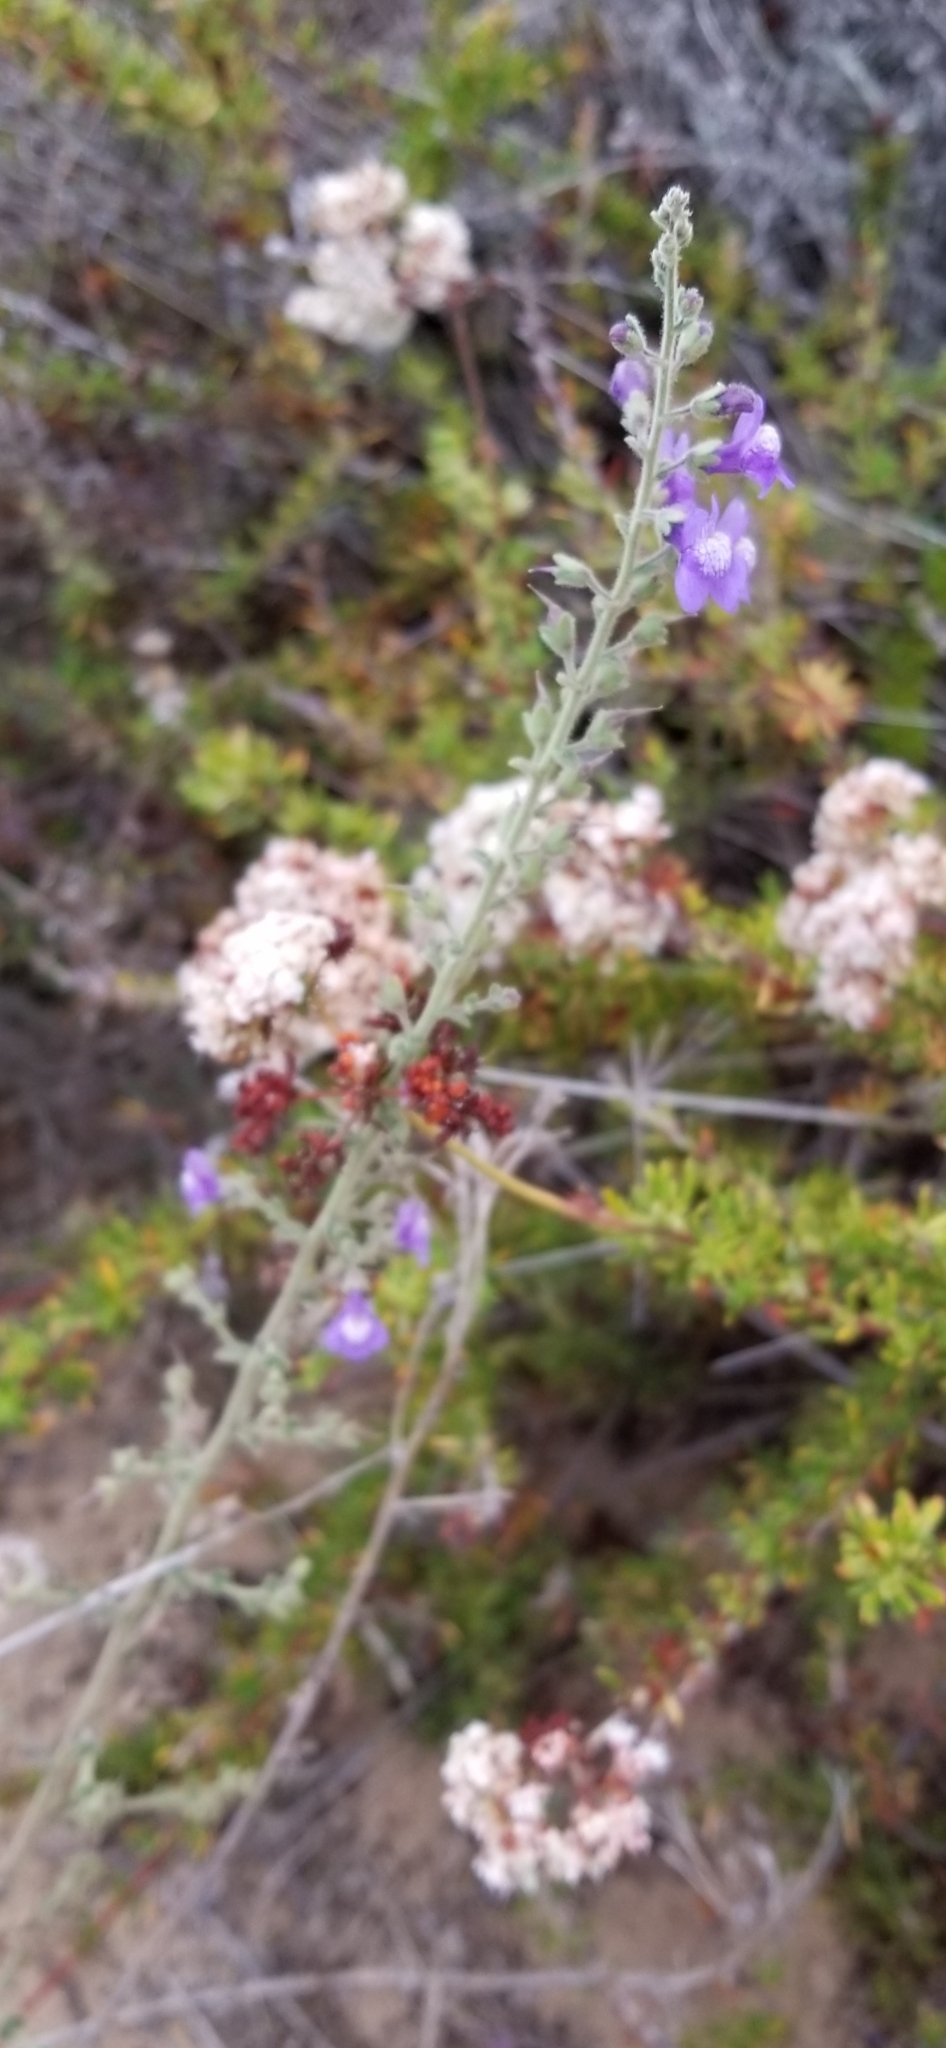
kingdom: Plantae
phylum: Tracheophyta
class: Magnoliopsida
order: Lamiales
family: Plantaginaceae
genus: Sairocarpus
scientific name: Sairocarpus nuttallianus
